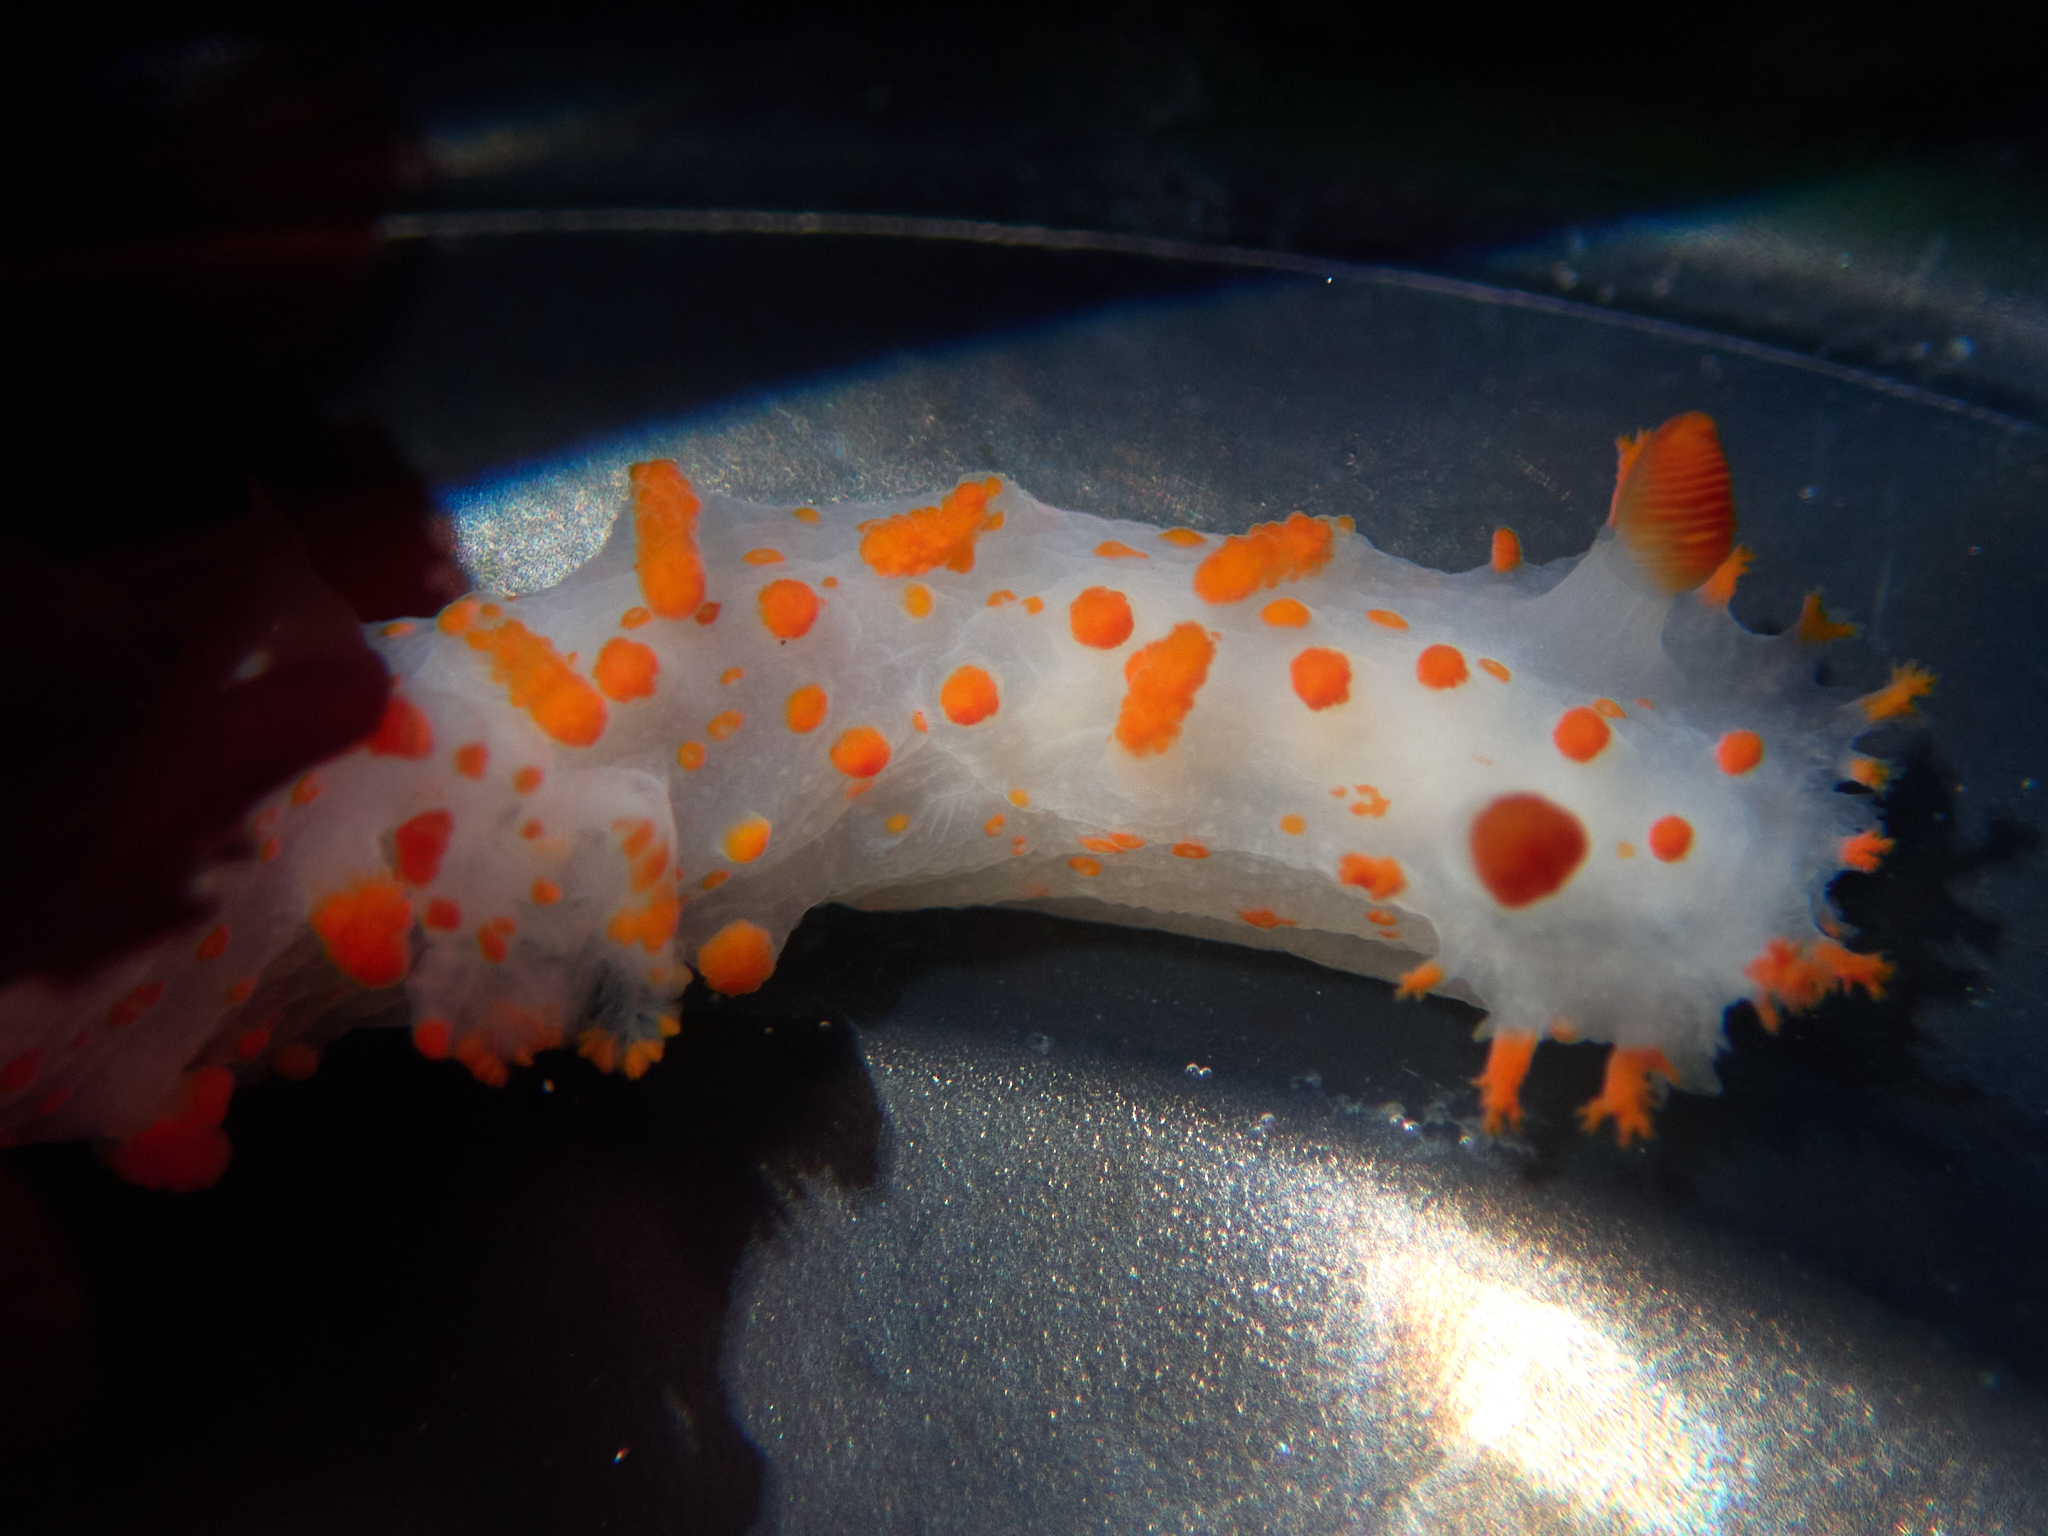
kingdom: Animalia
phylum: Mollusca
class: Gastropoda
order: Nudibranchia
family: Polyceridae
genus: Triopha
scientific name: Triopha catalinae
